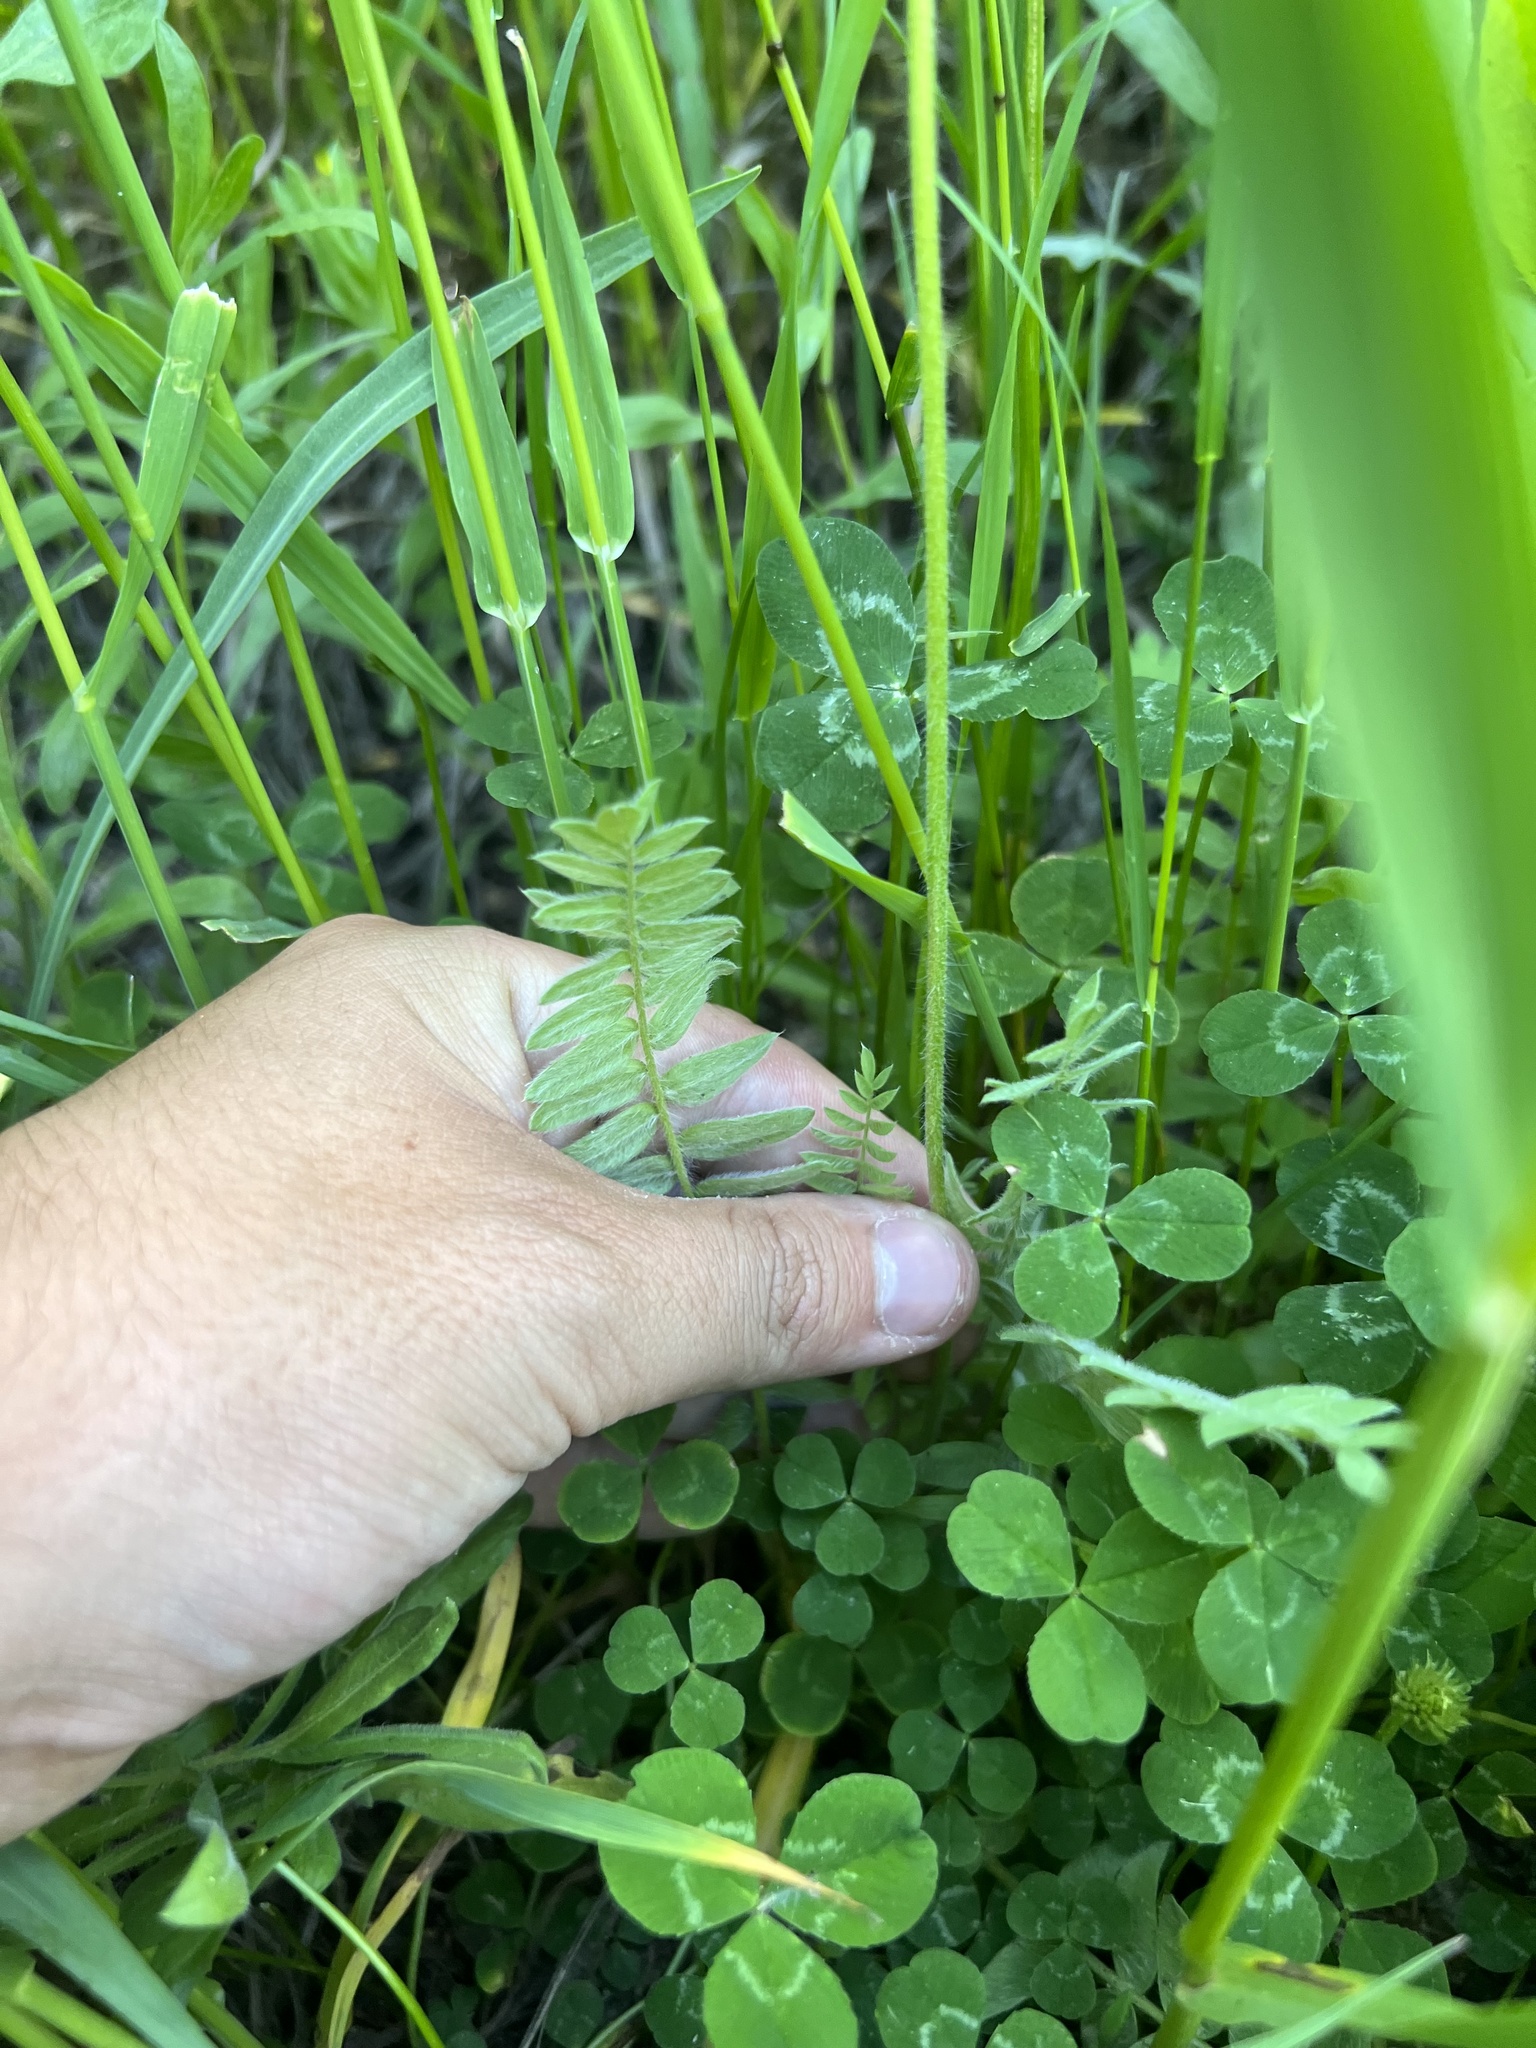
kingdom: Plantae
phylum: Tracheophyta
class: Magnoliopsida
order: Fabales
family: Fabaceae
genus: Oxytropis
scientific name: Oxytropis deflexa
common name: Stemmed oxytrope
